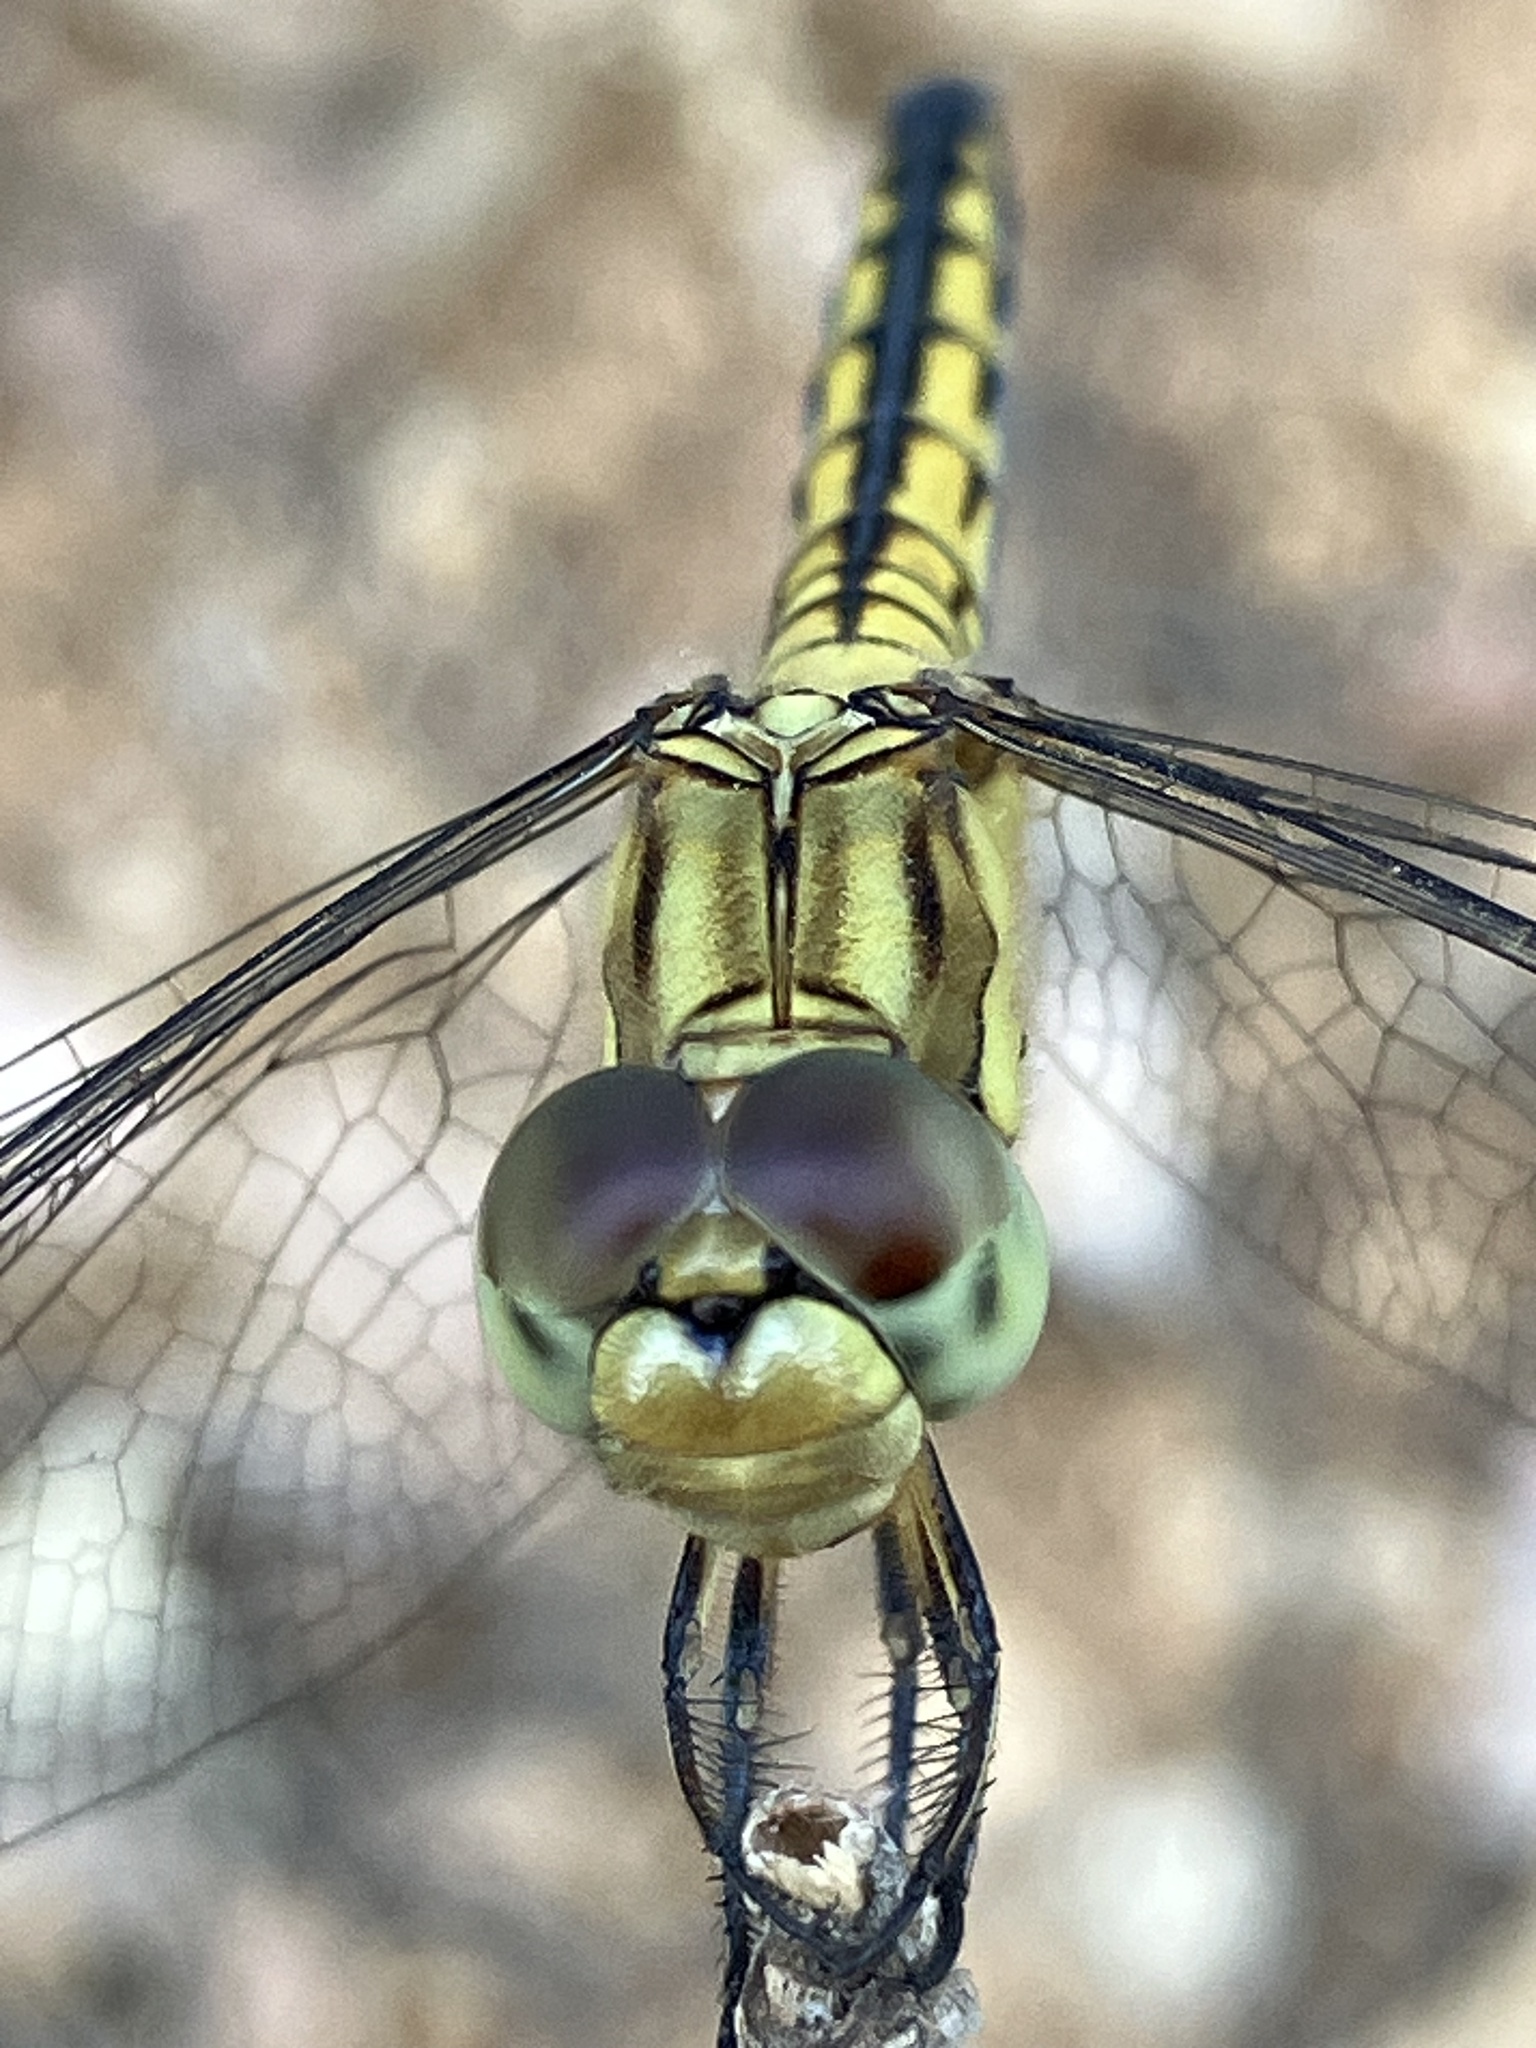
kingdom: Animalia
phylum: Arthropoda
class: Insecta
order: Odonata
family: Libellulidae
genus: Indothemis
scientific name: Indothemis carnatica
